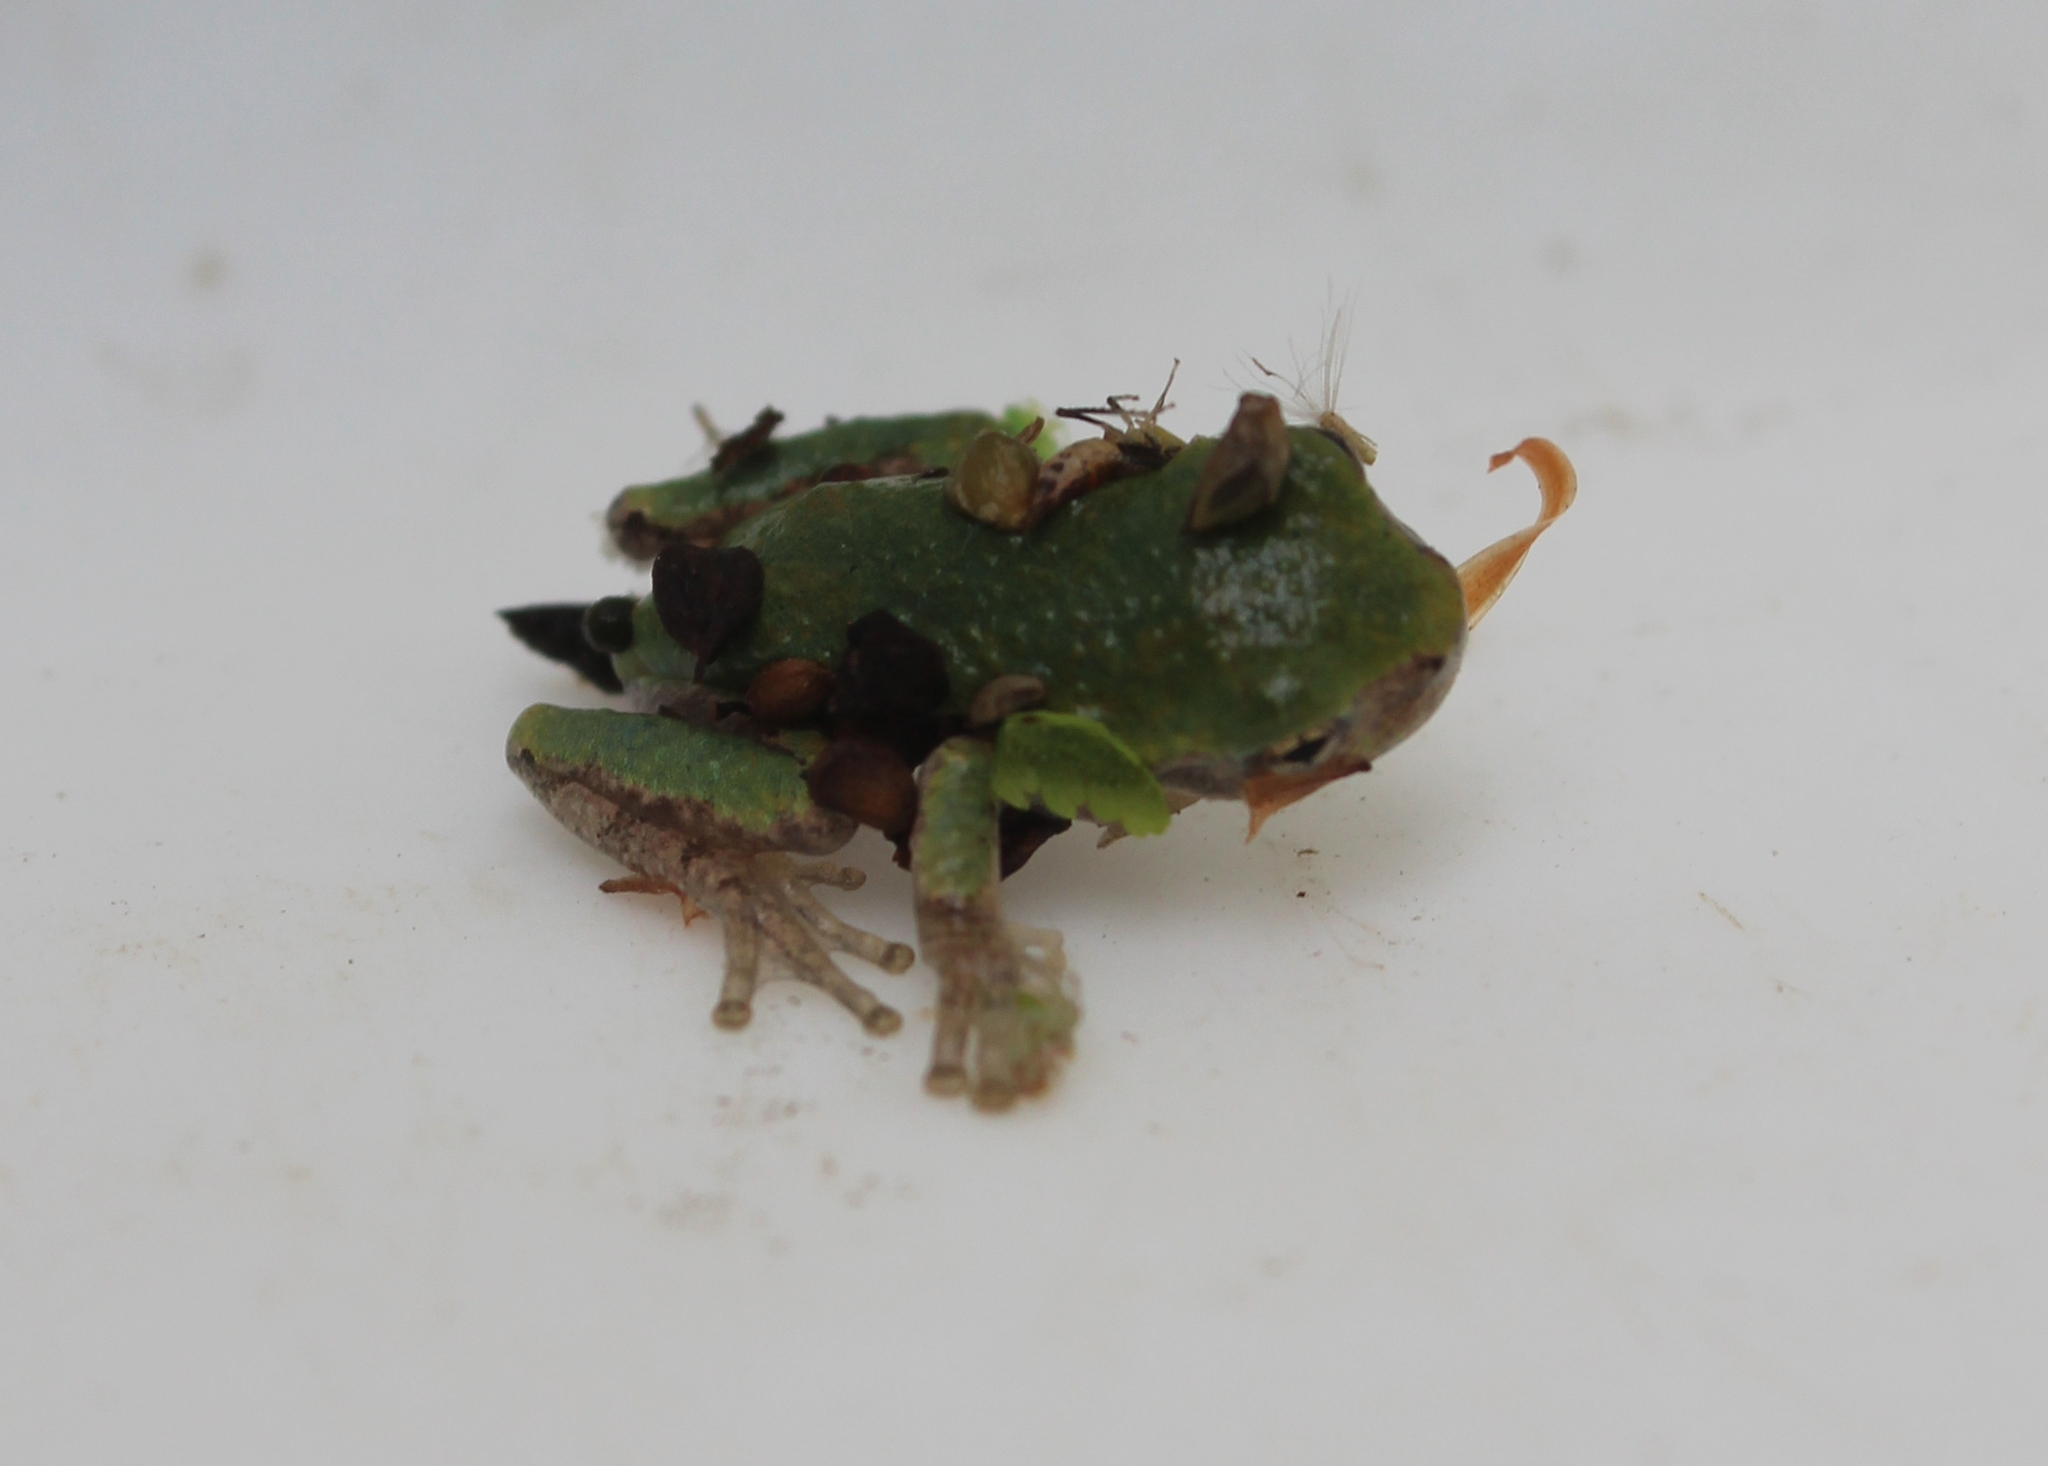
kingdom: Animalia
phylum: Chordata
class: Amphibia
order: Anura
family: Hylidae
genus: Dryophytes
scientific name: Dryophytes versicolor
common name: Gray treefrog
